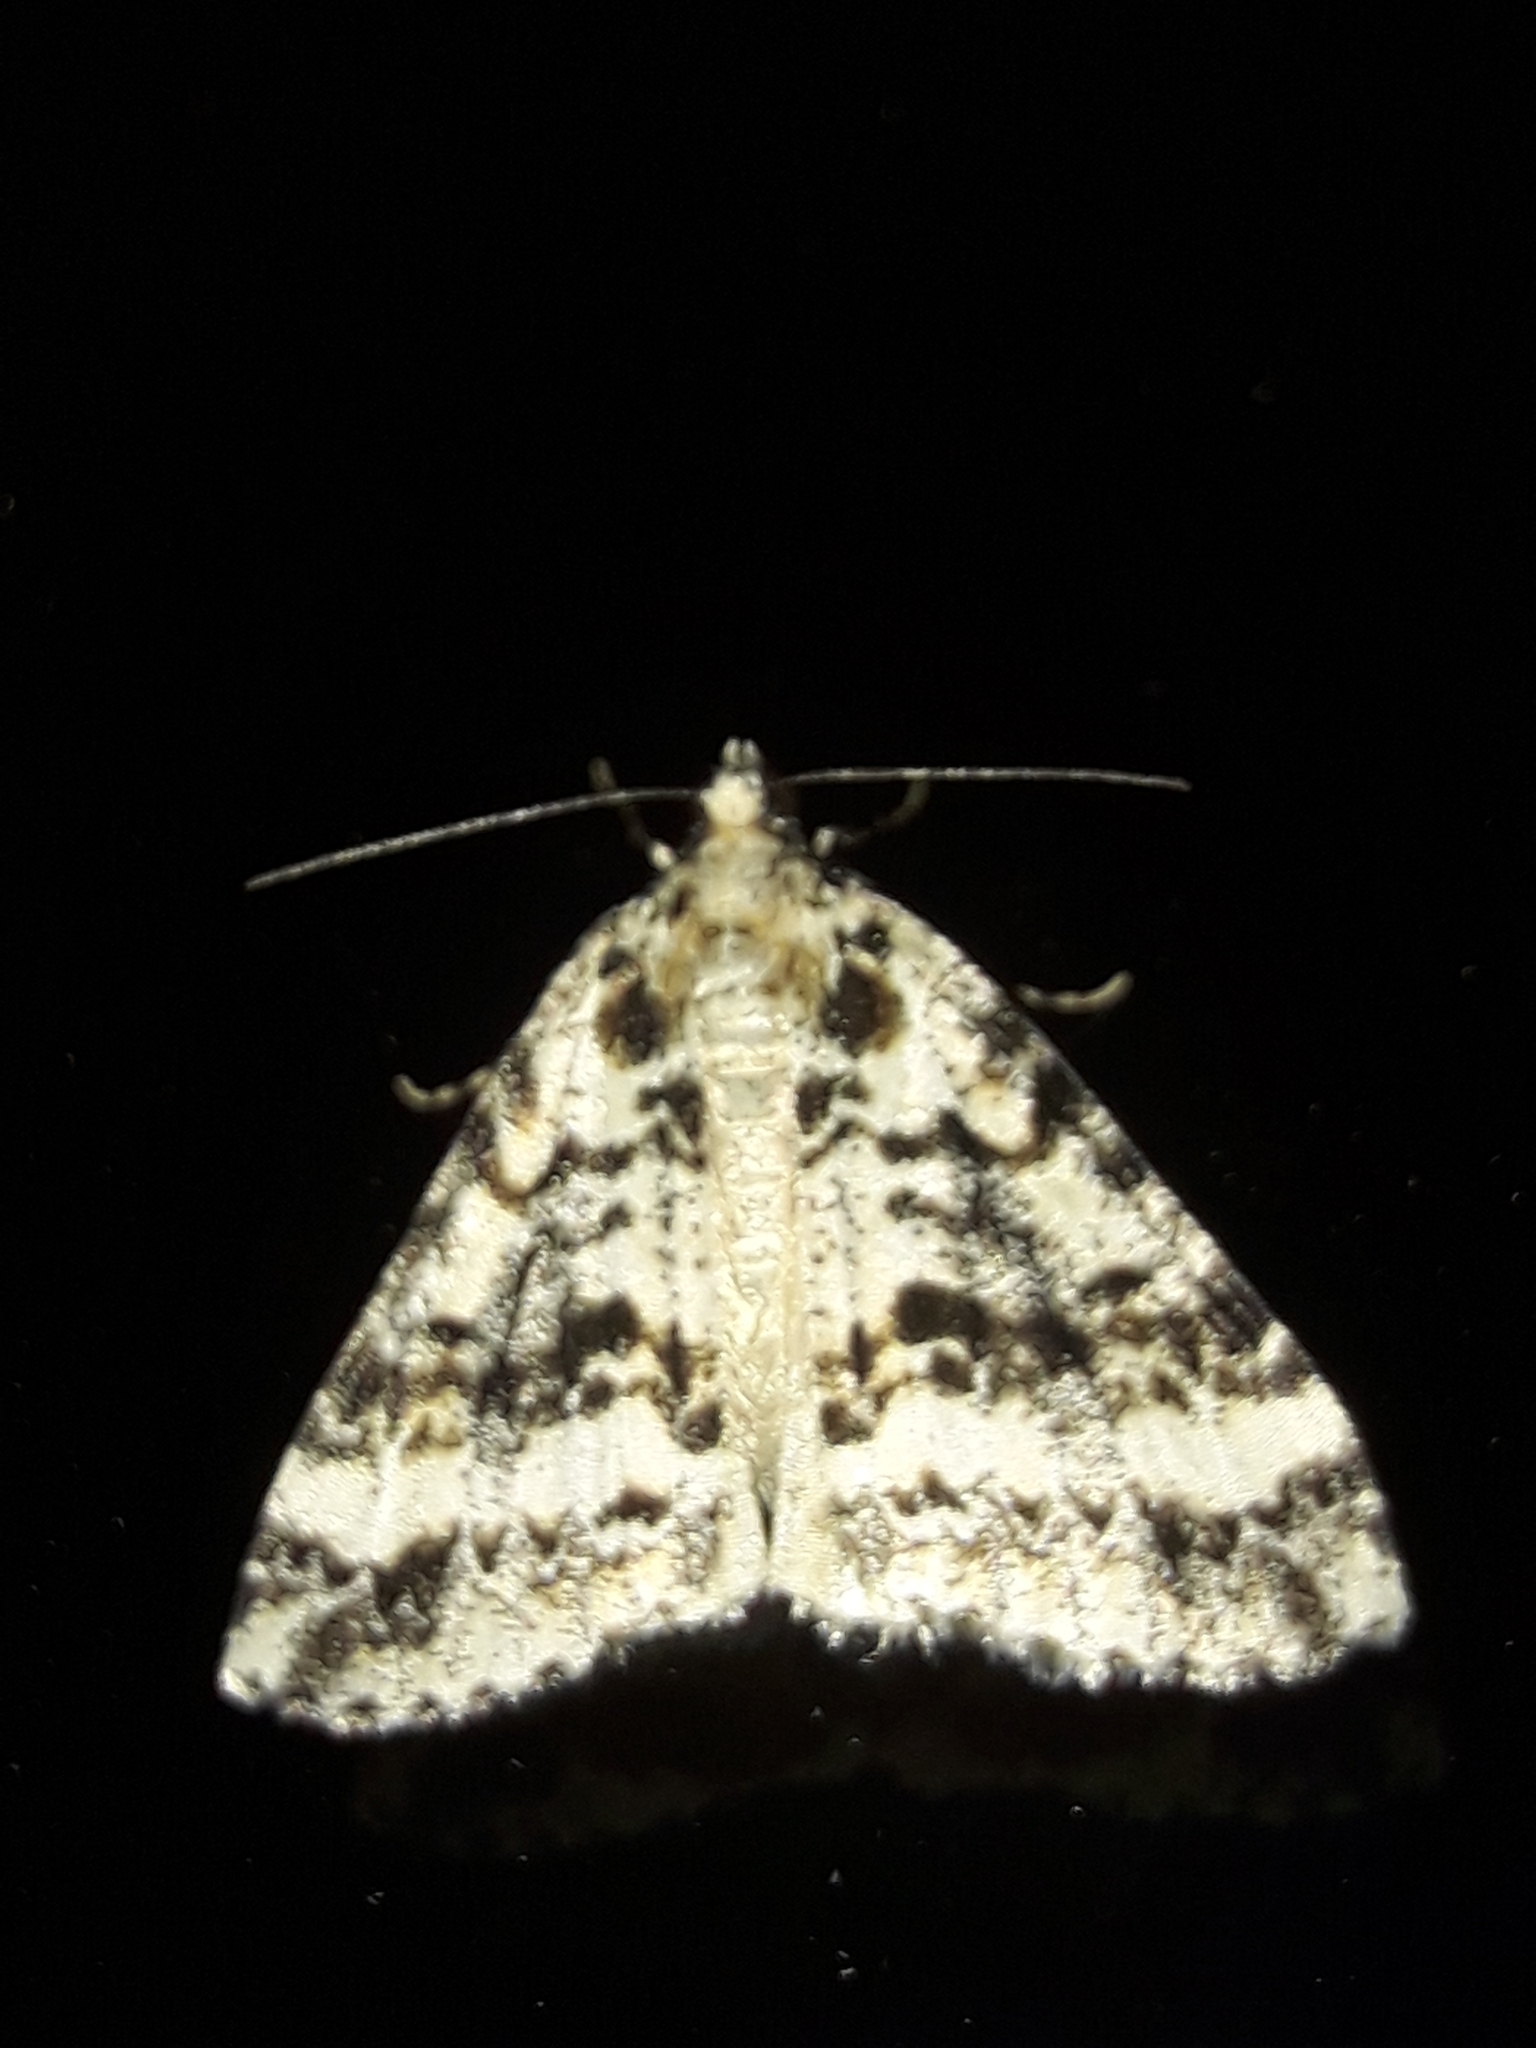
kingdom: Animalia
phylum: Arthropoda
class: Insecta
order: Lepidoptera
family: Geometridae
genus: Pseudocoremia
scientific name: Pseudocoremia leucelaea
